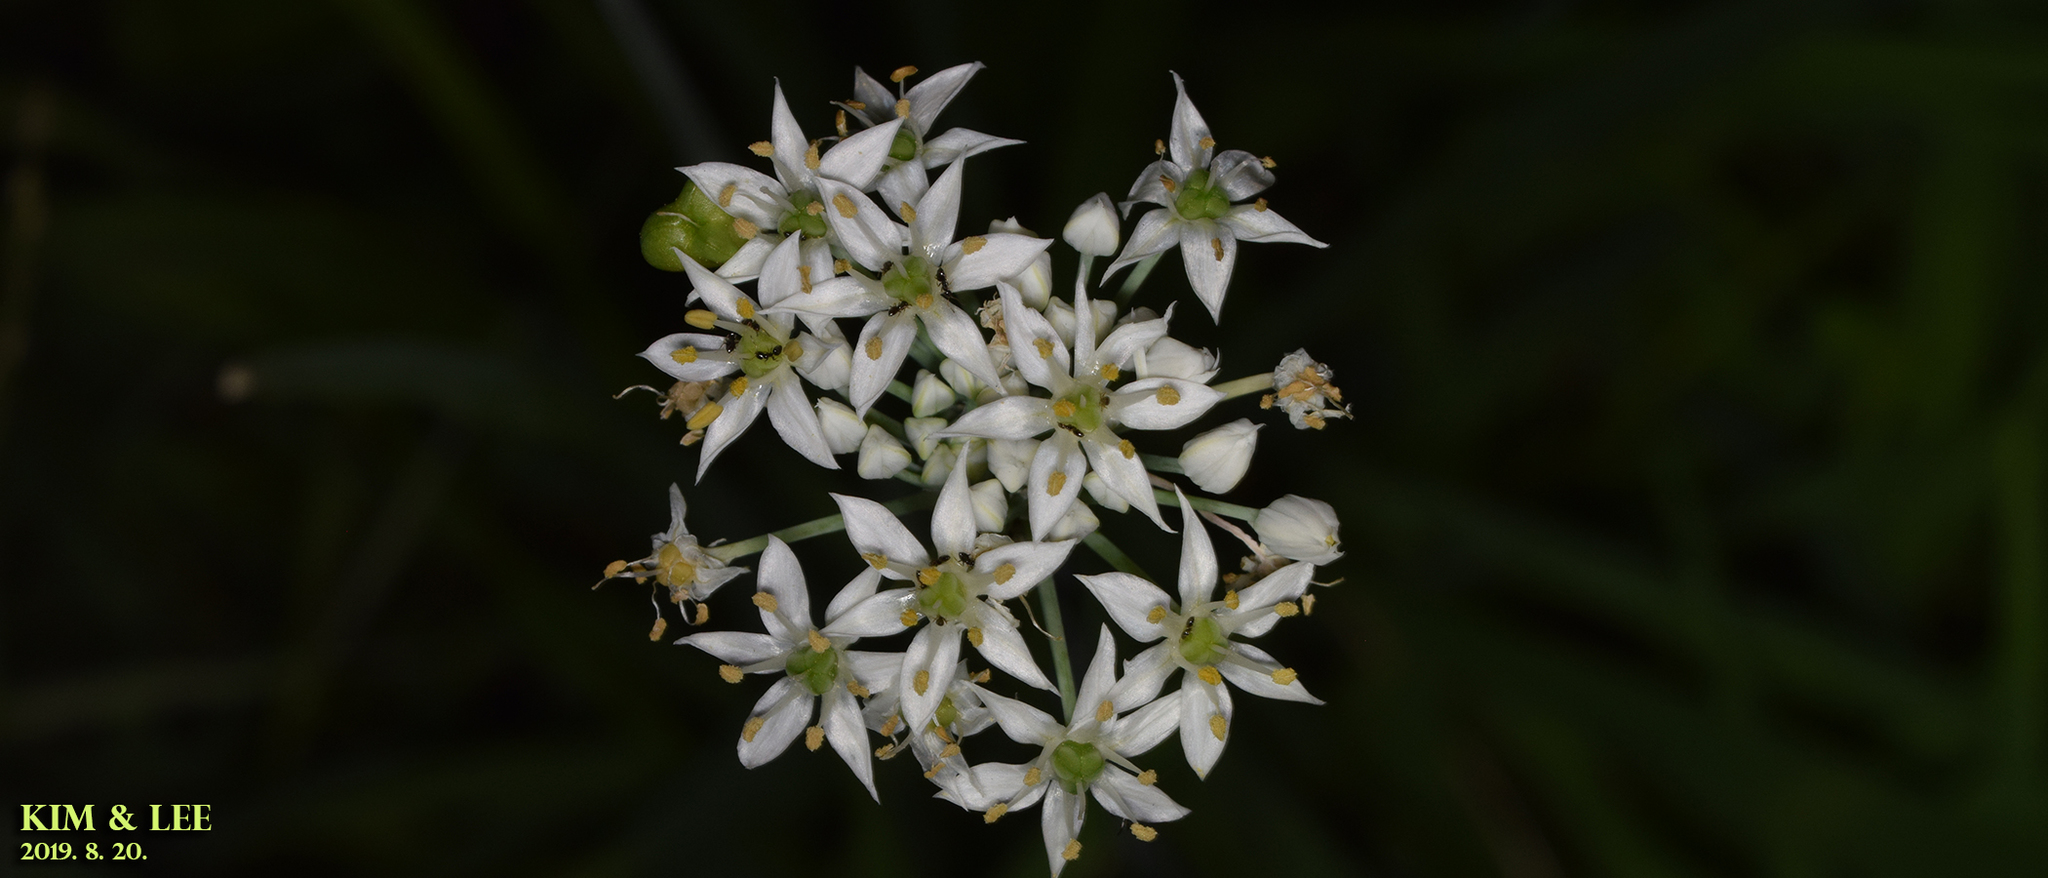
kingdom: Plantae
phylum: Tracheophyta
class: Liliopsida
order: Asparagales
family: Amaryllidaceae
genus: Allium
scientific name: Allium tuberosum
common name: Chinese chives
